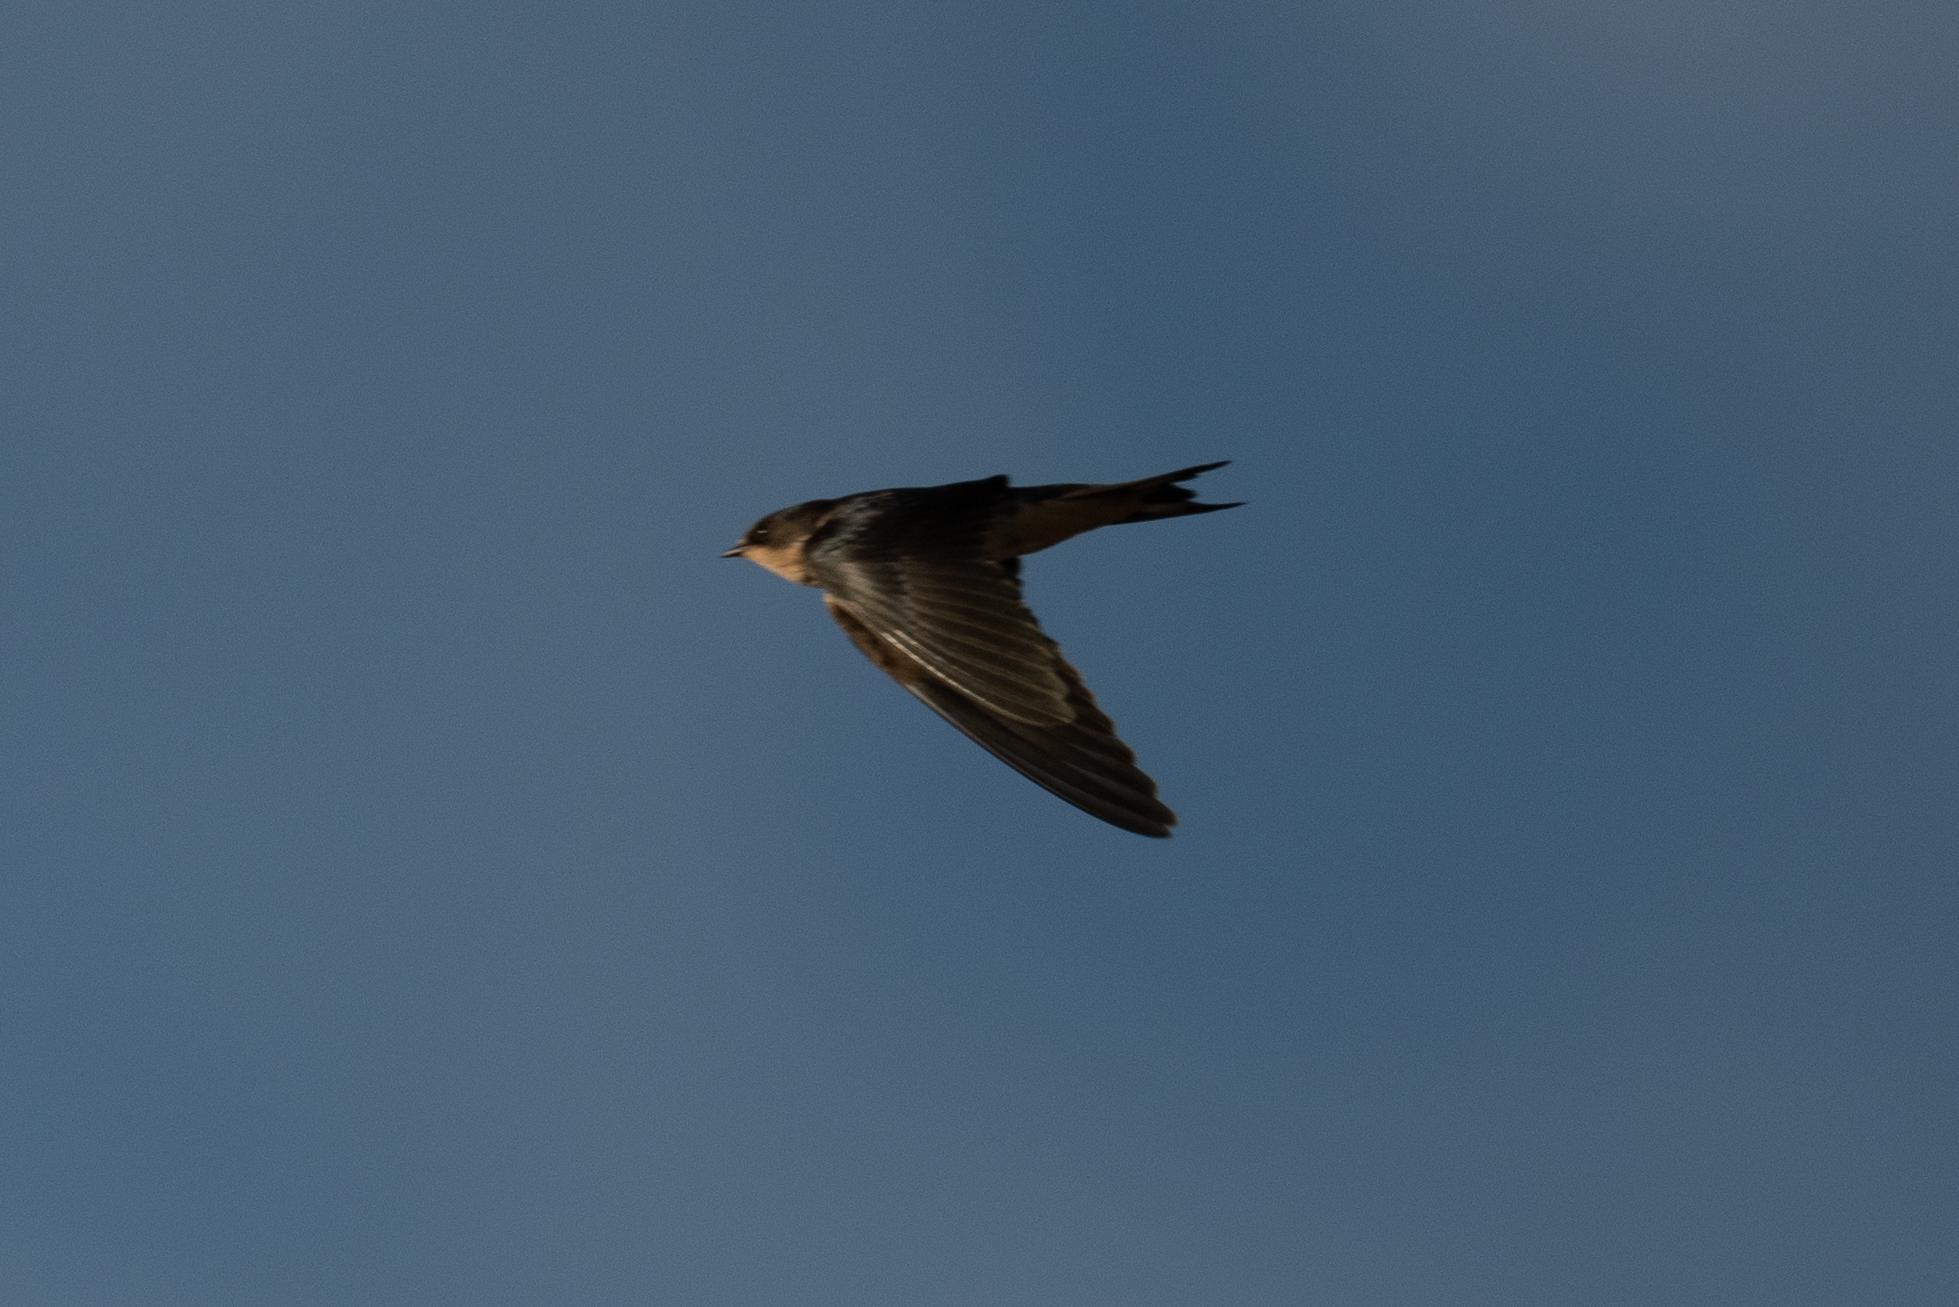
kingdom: Animalia
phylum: Chordata
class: Aves
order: Passeriformes
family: Hirundinidae
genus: Hirundo
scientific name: Hirundo rustica
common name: Barn swallow
